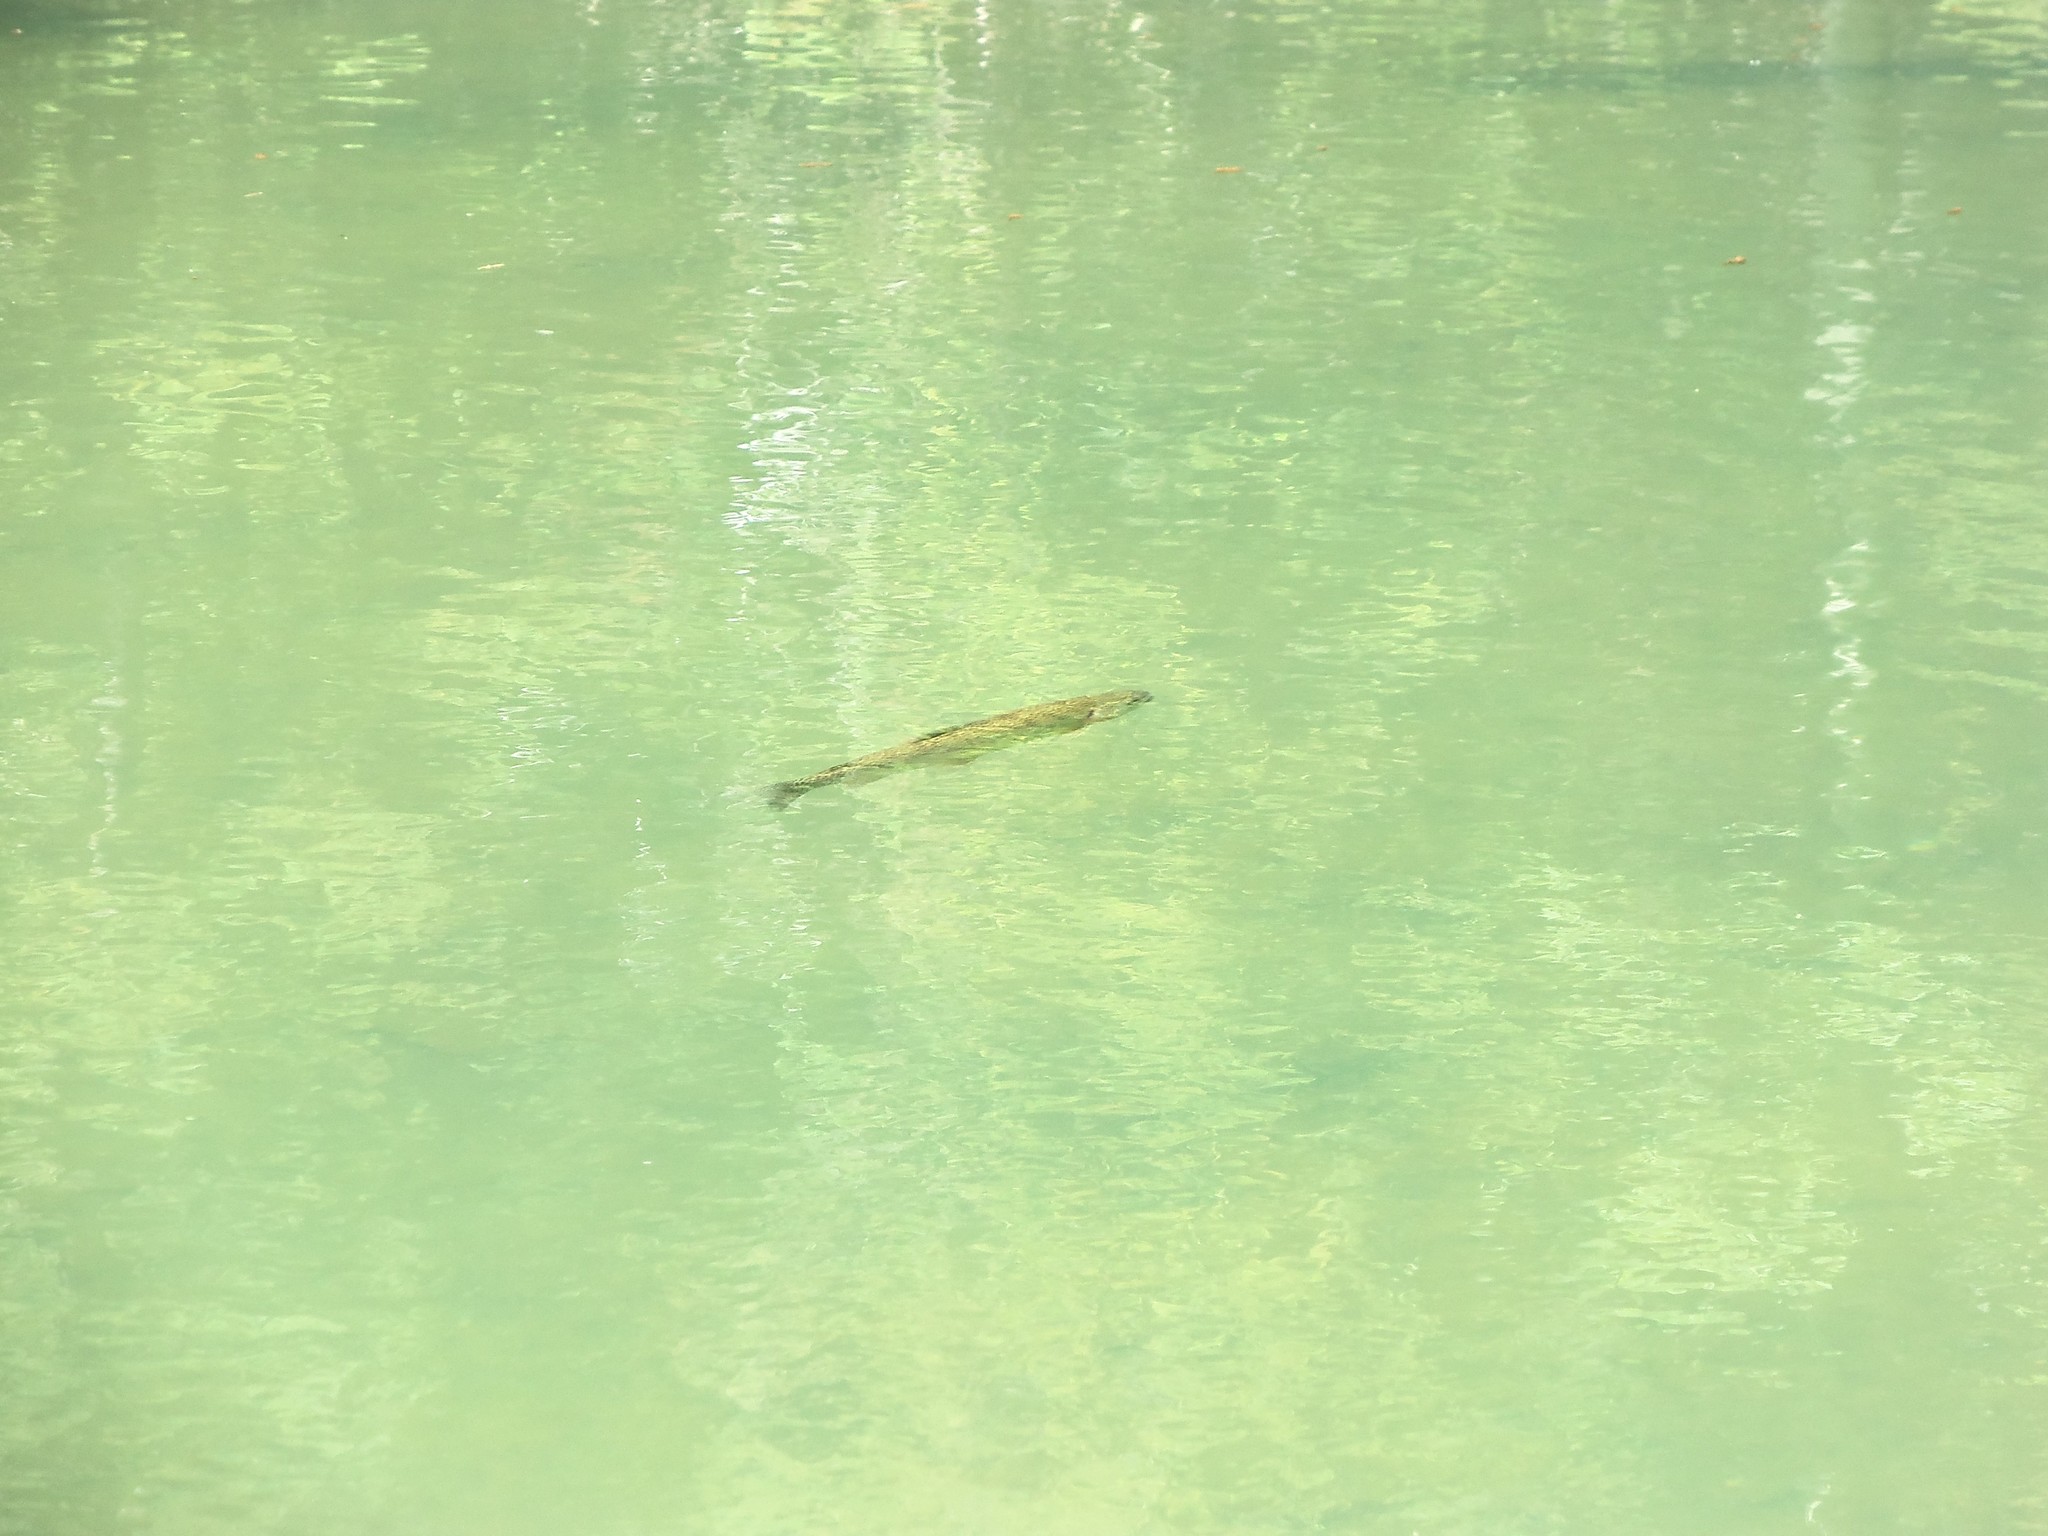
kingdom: Animalia
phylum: Chordata
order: Salmoniformes
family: Salmonidae
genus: Salmo
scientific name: Salmo trutta
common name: Brown trout
